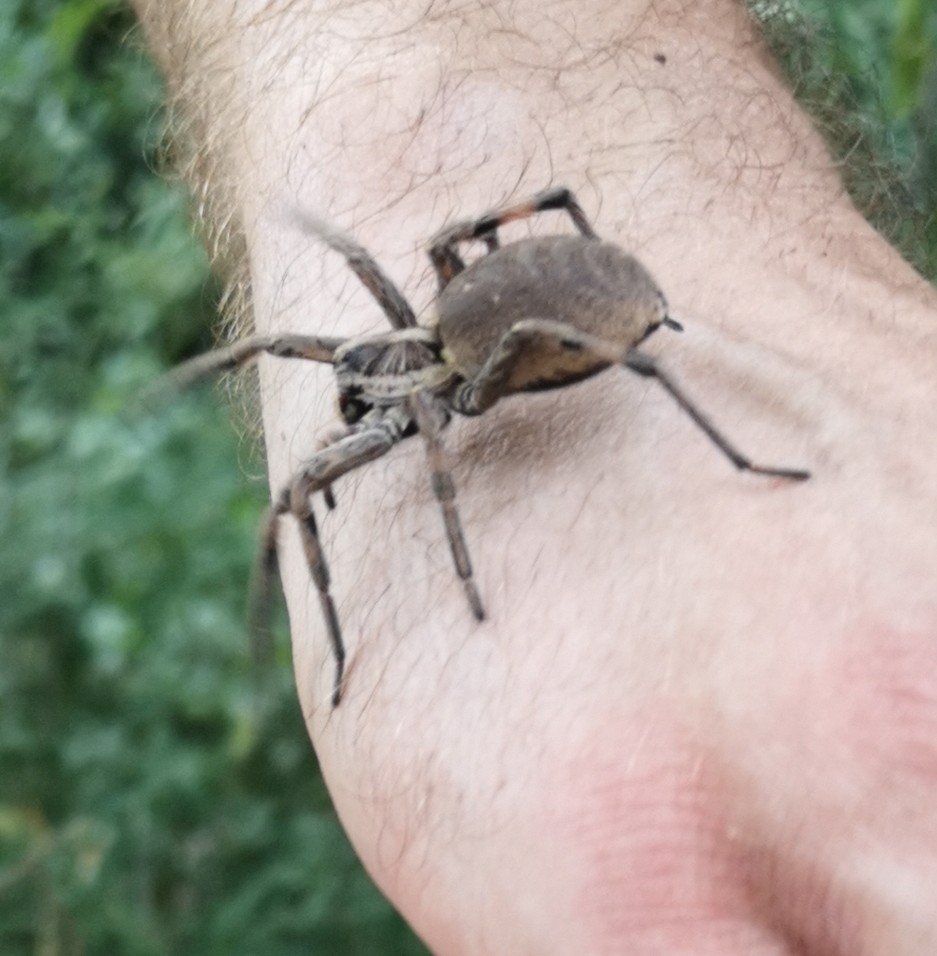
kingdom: Animalia
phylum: Arthropoda
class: Arachnida
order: Araneae
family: Lycosidae
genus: Hogna
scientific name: Hogna radiata
